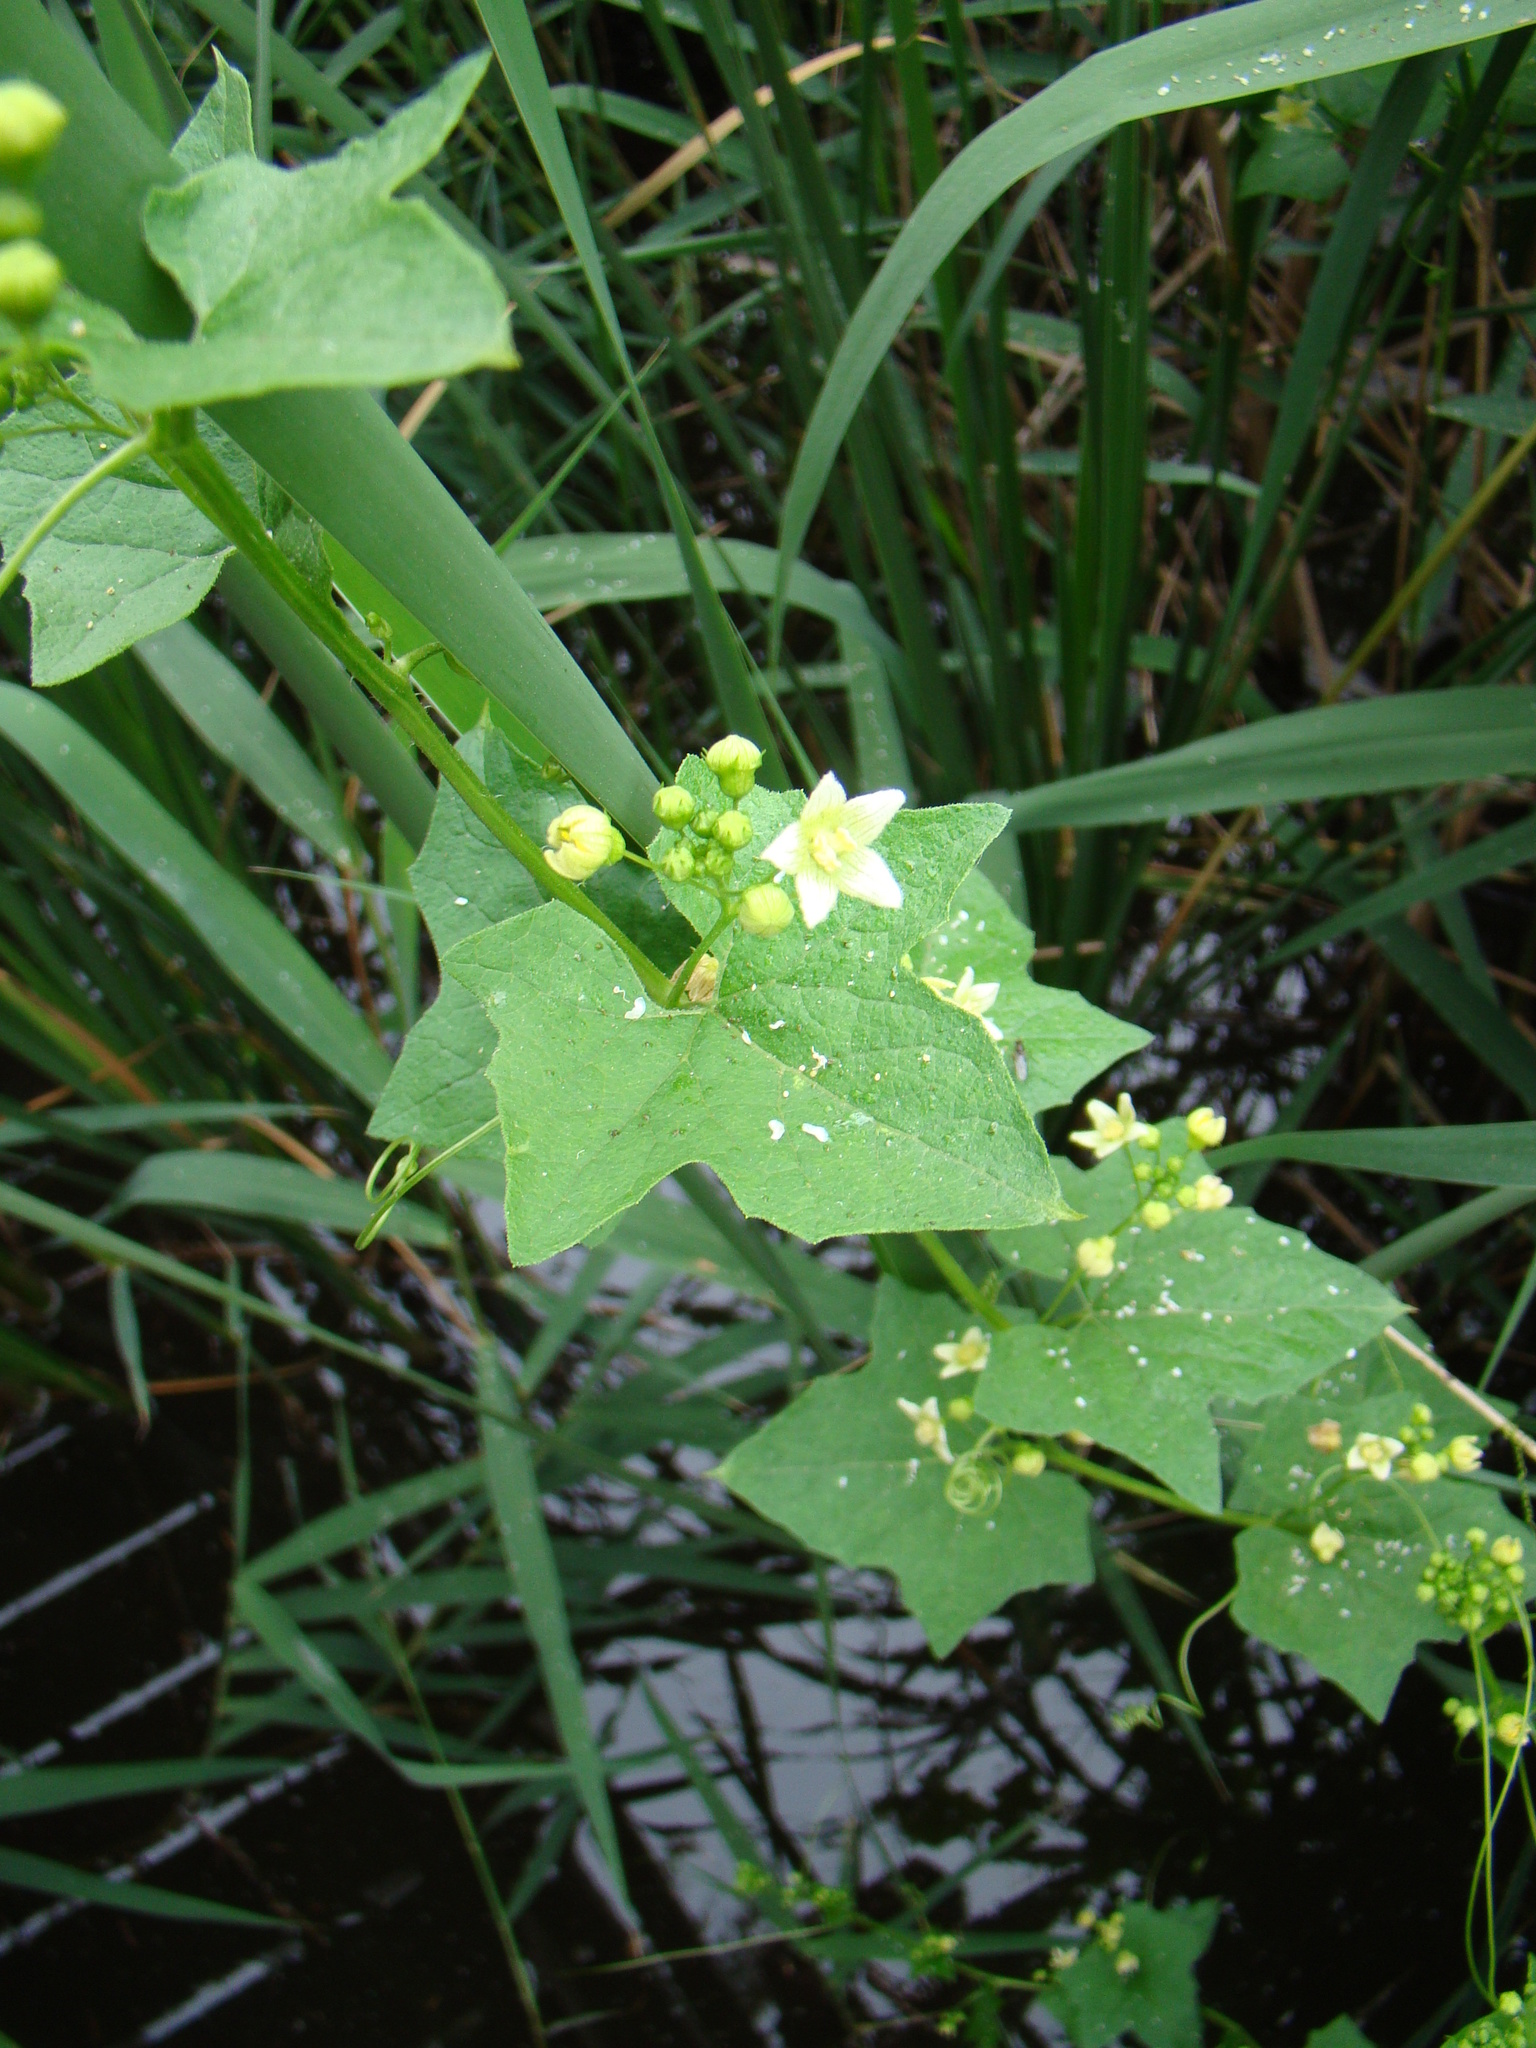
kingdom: Plantae
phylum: Tracheophyta
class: Magnoliopsida
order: Cucurbitales
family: Cucurbitaceae
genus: Bryonia
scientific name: Bryonia cretica
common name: Cretan bryony
